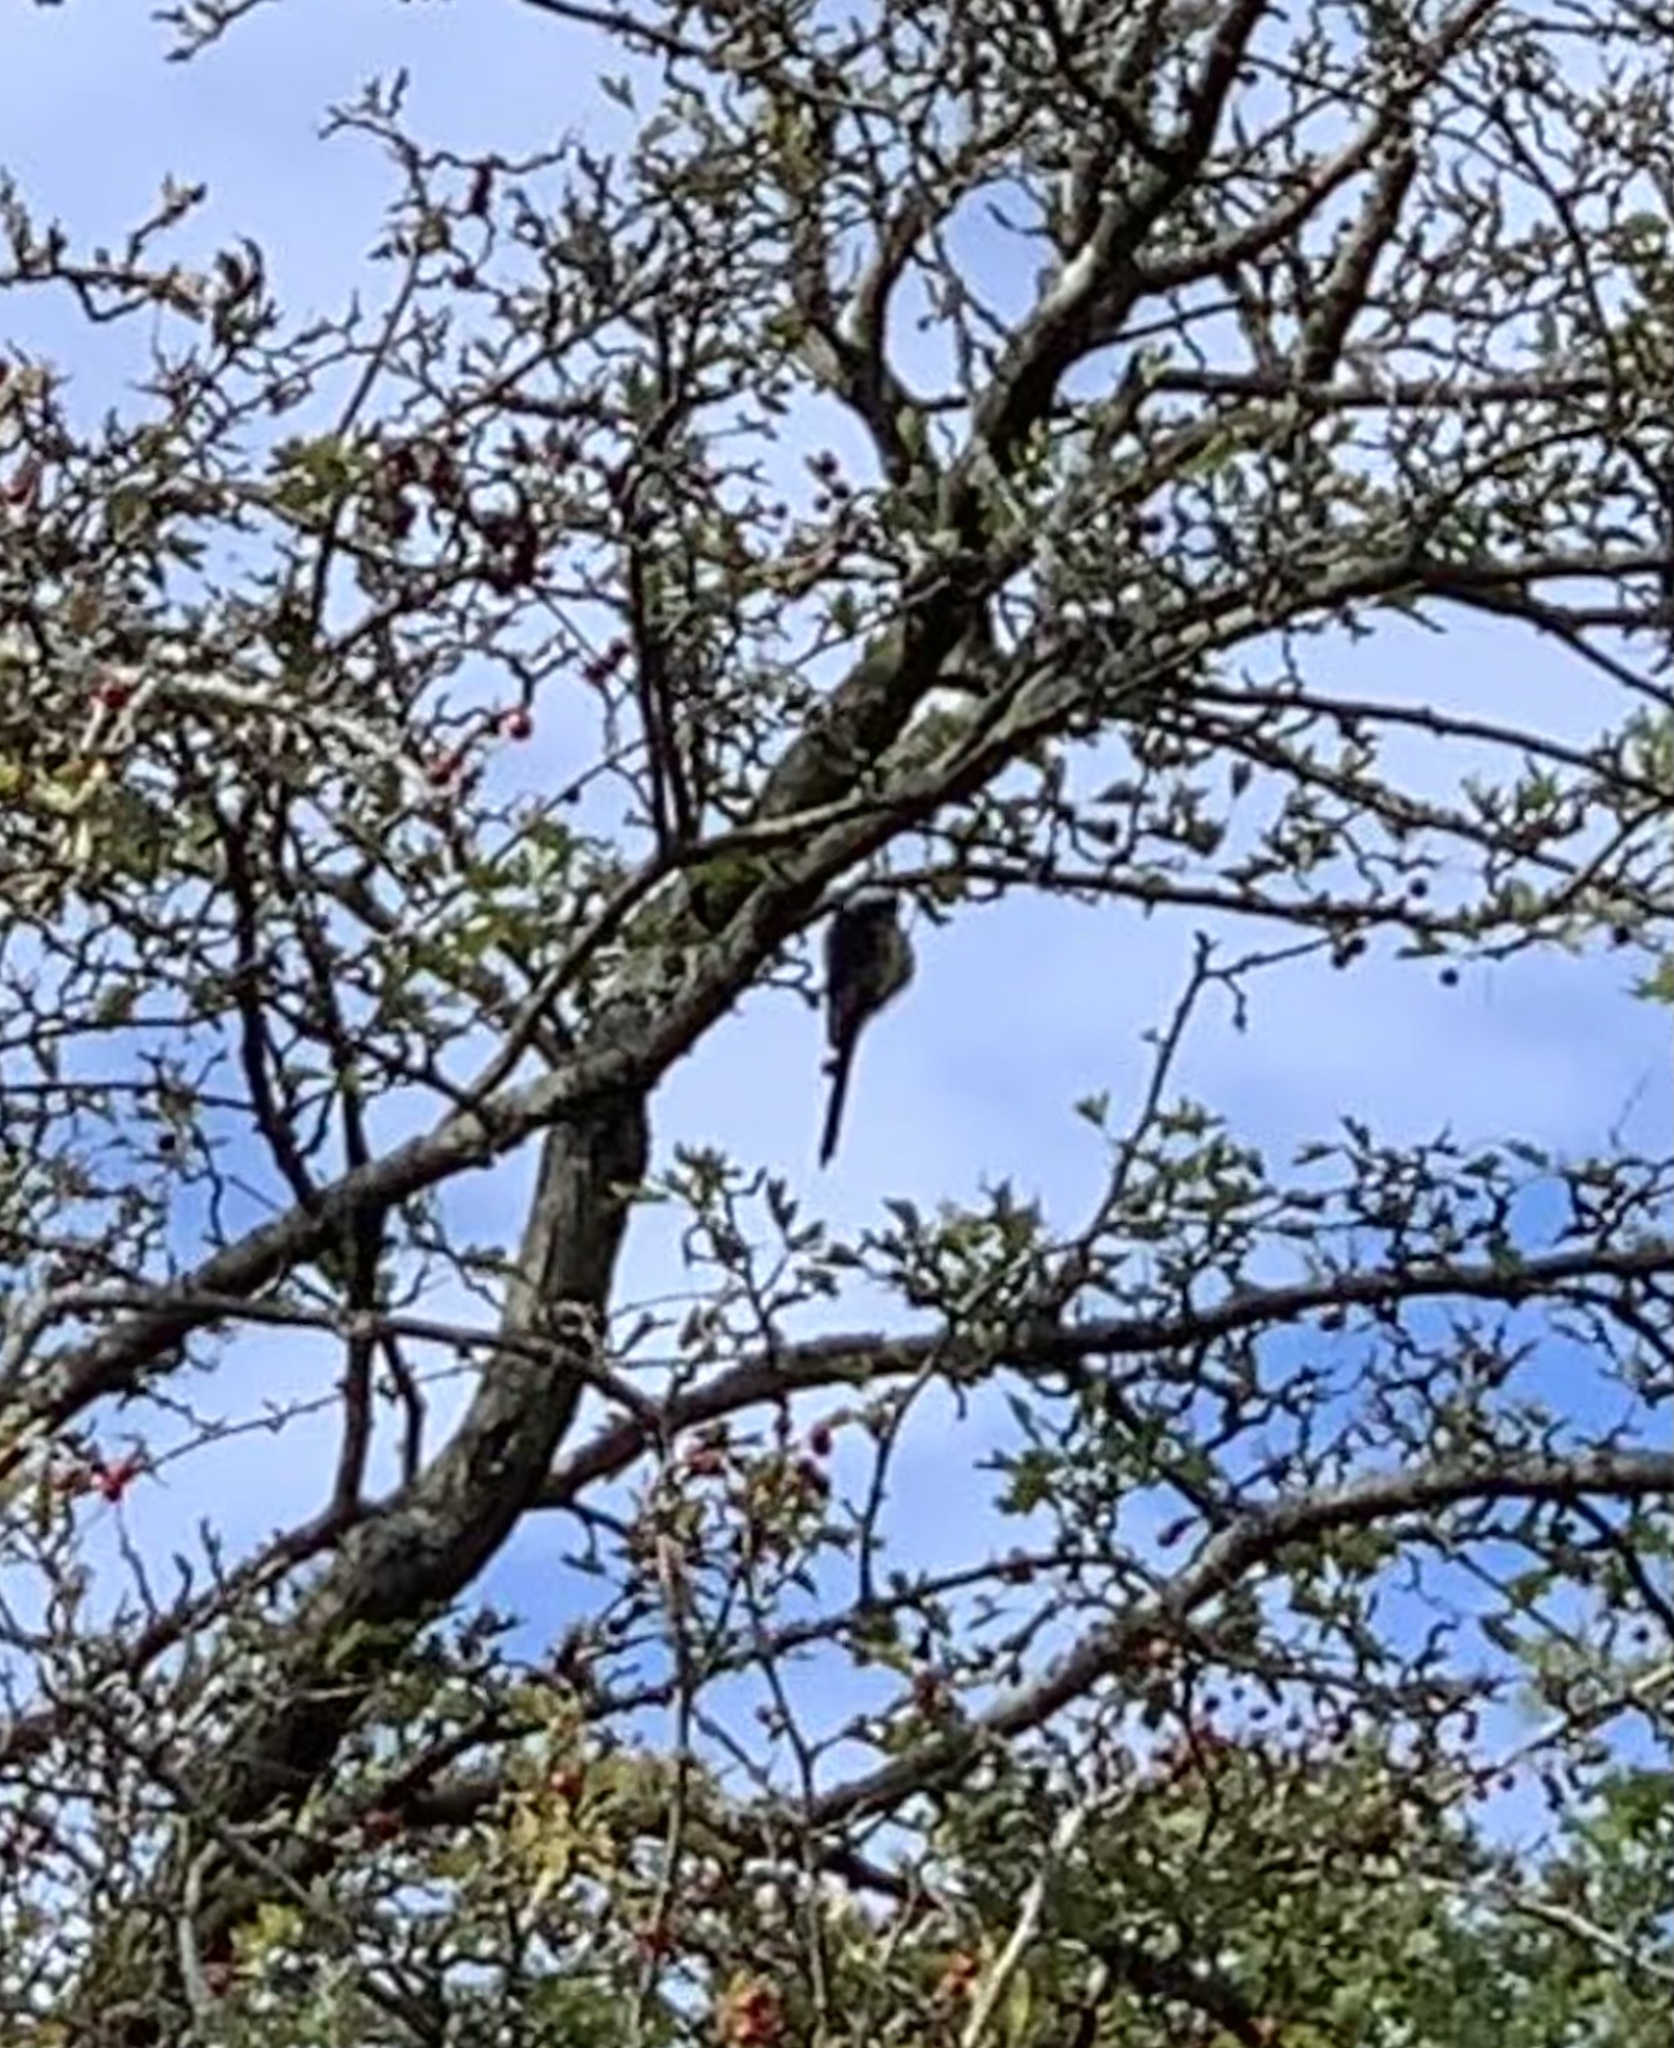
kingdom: Animalia
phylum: Chordata
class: Aves
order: Passeriformes
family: Aegithalidae
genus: Aegithalos
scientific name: Aegithalos caudatus
